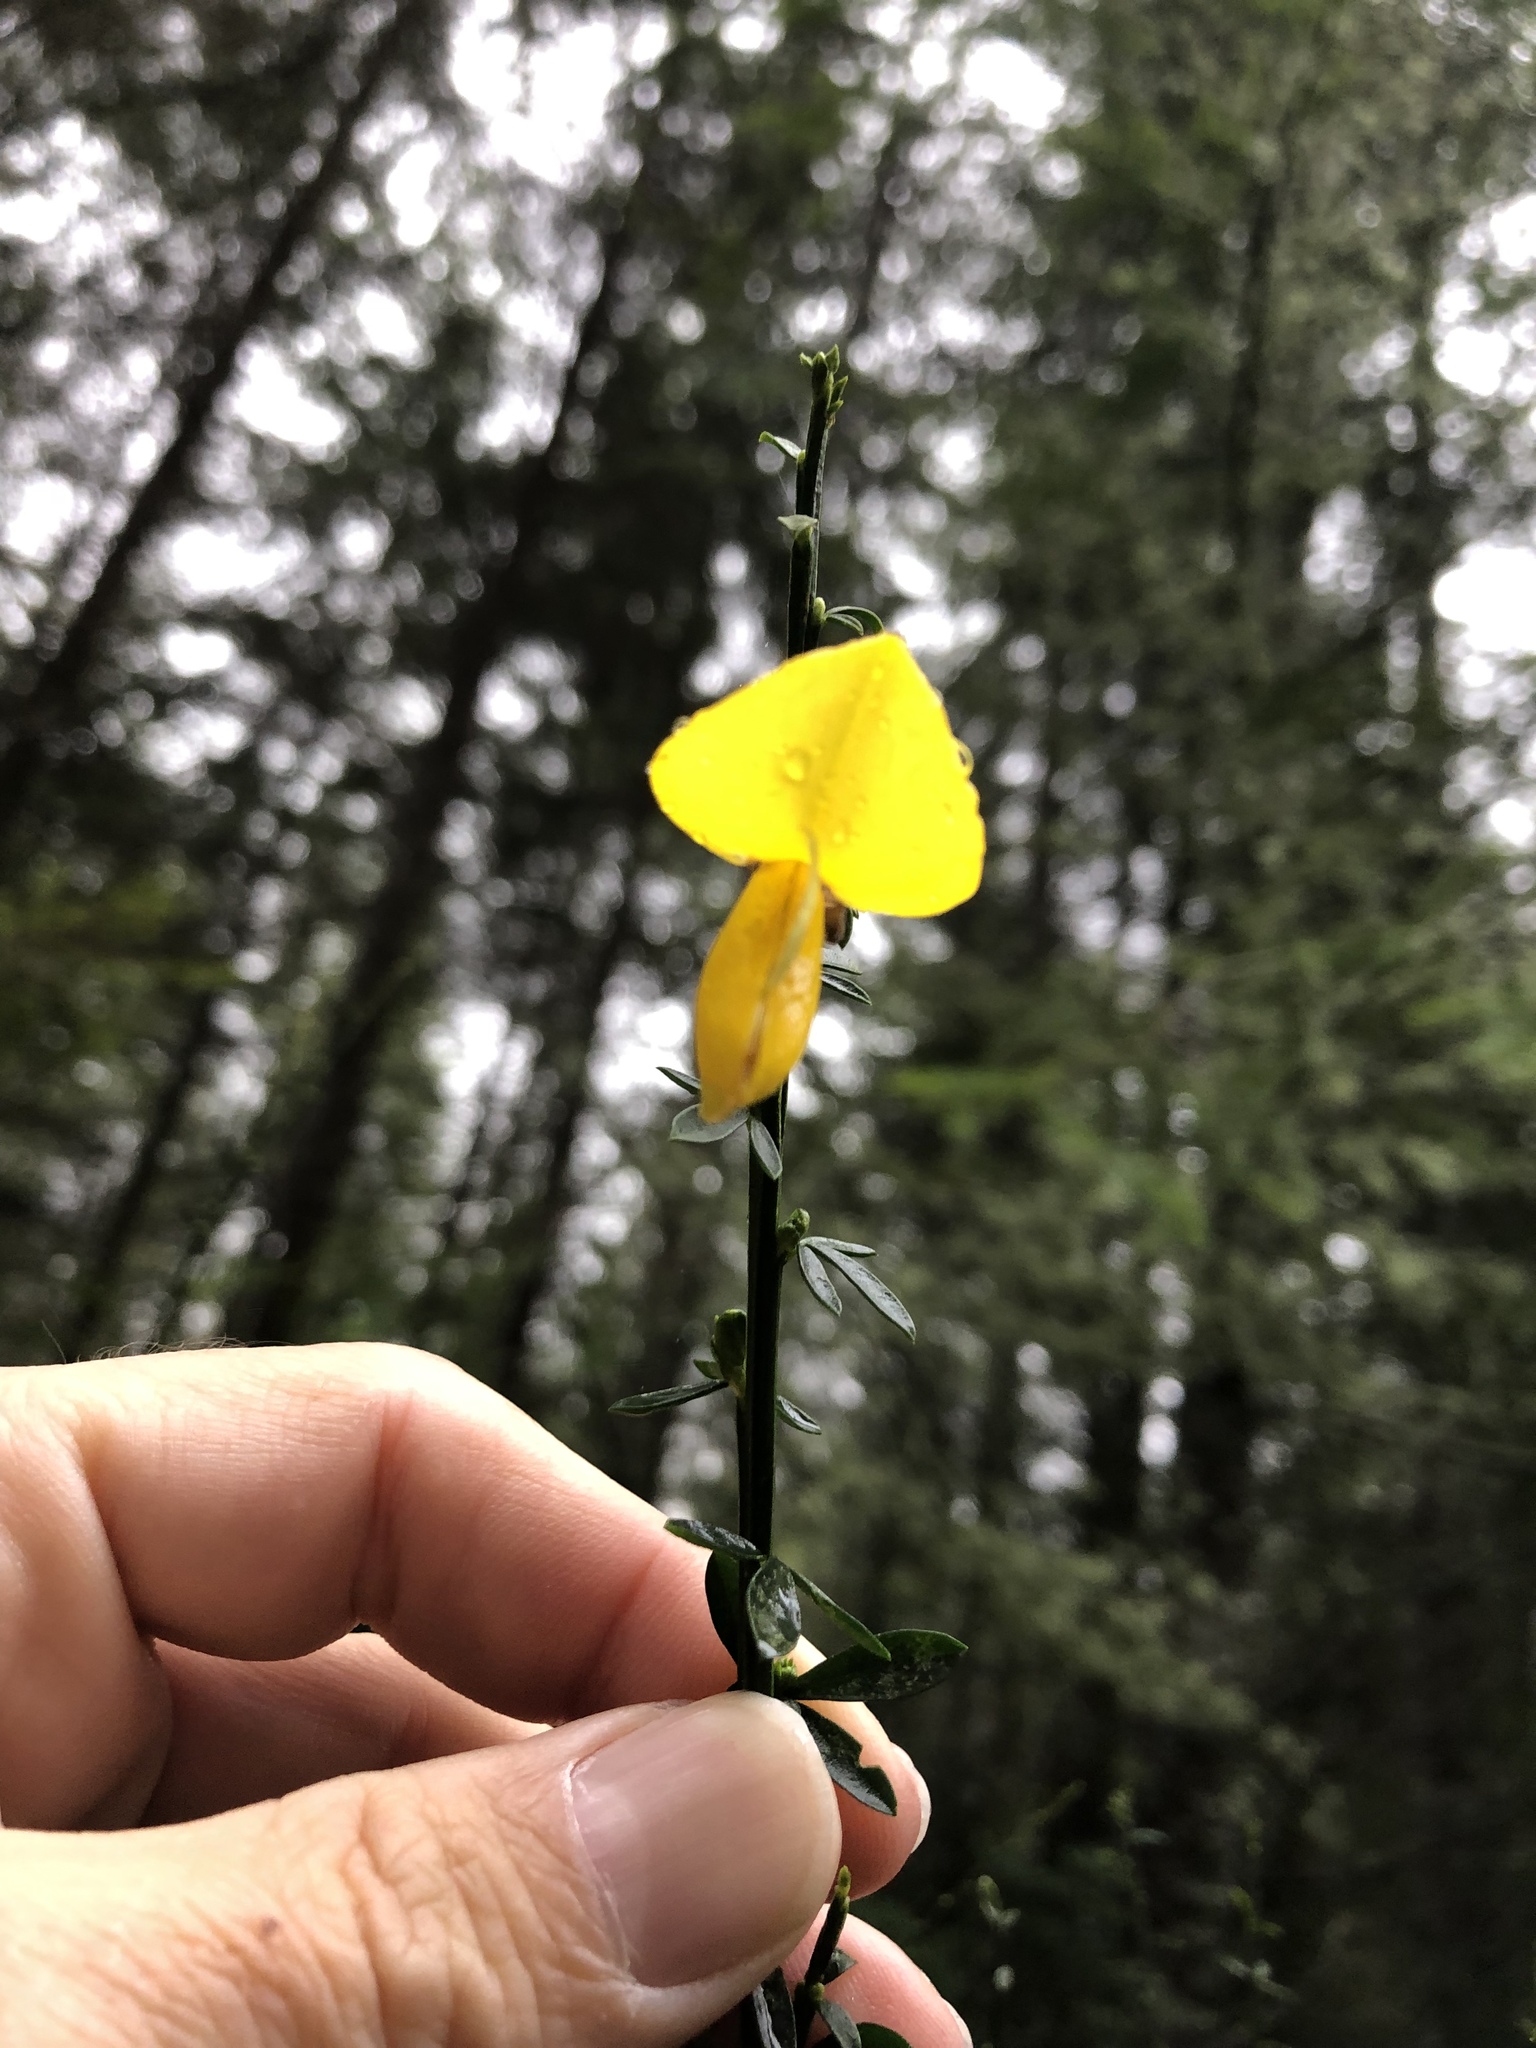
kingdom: Plantae
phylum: Tracheophyta
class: Magnoliopsida
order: Fabales
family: Fabaceae
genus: Cytisus
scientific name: Cytisus scoparius
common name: Scotch broom
